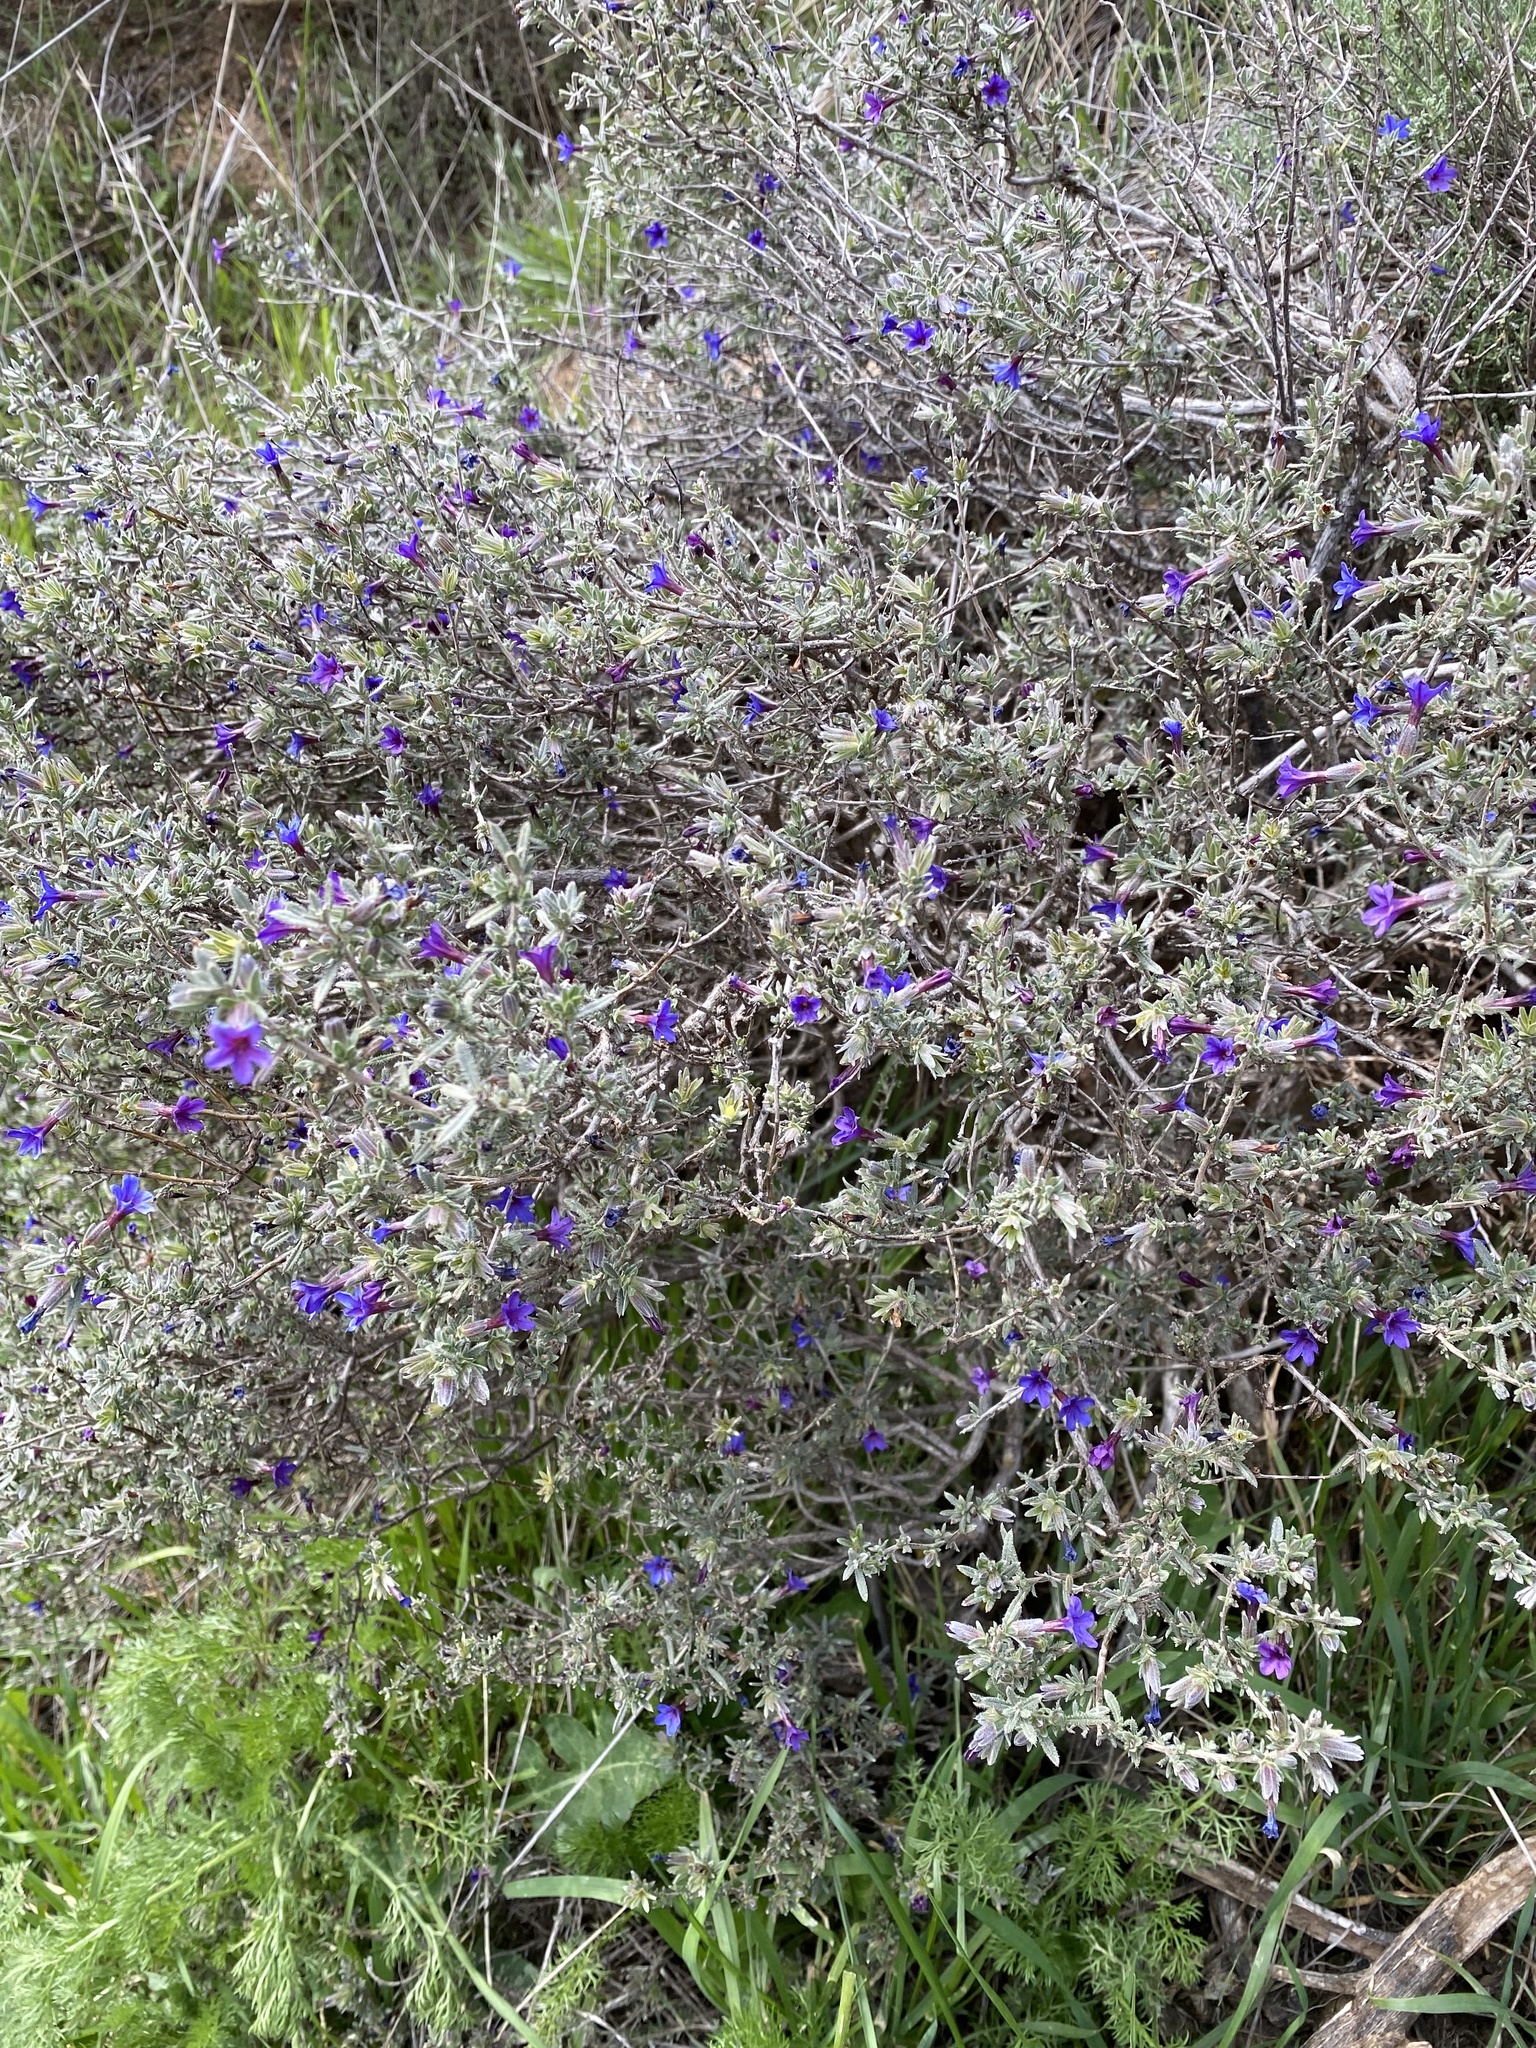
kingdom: Plantae
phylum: Tracheophyta
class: Magnoliopsida
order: Boraginales
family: Boraginaceae
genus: Lithodora
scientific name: Lithodora fruticosa
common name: Shrubby gromwell
